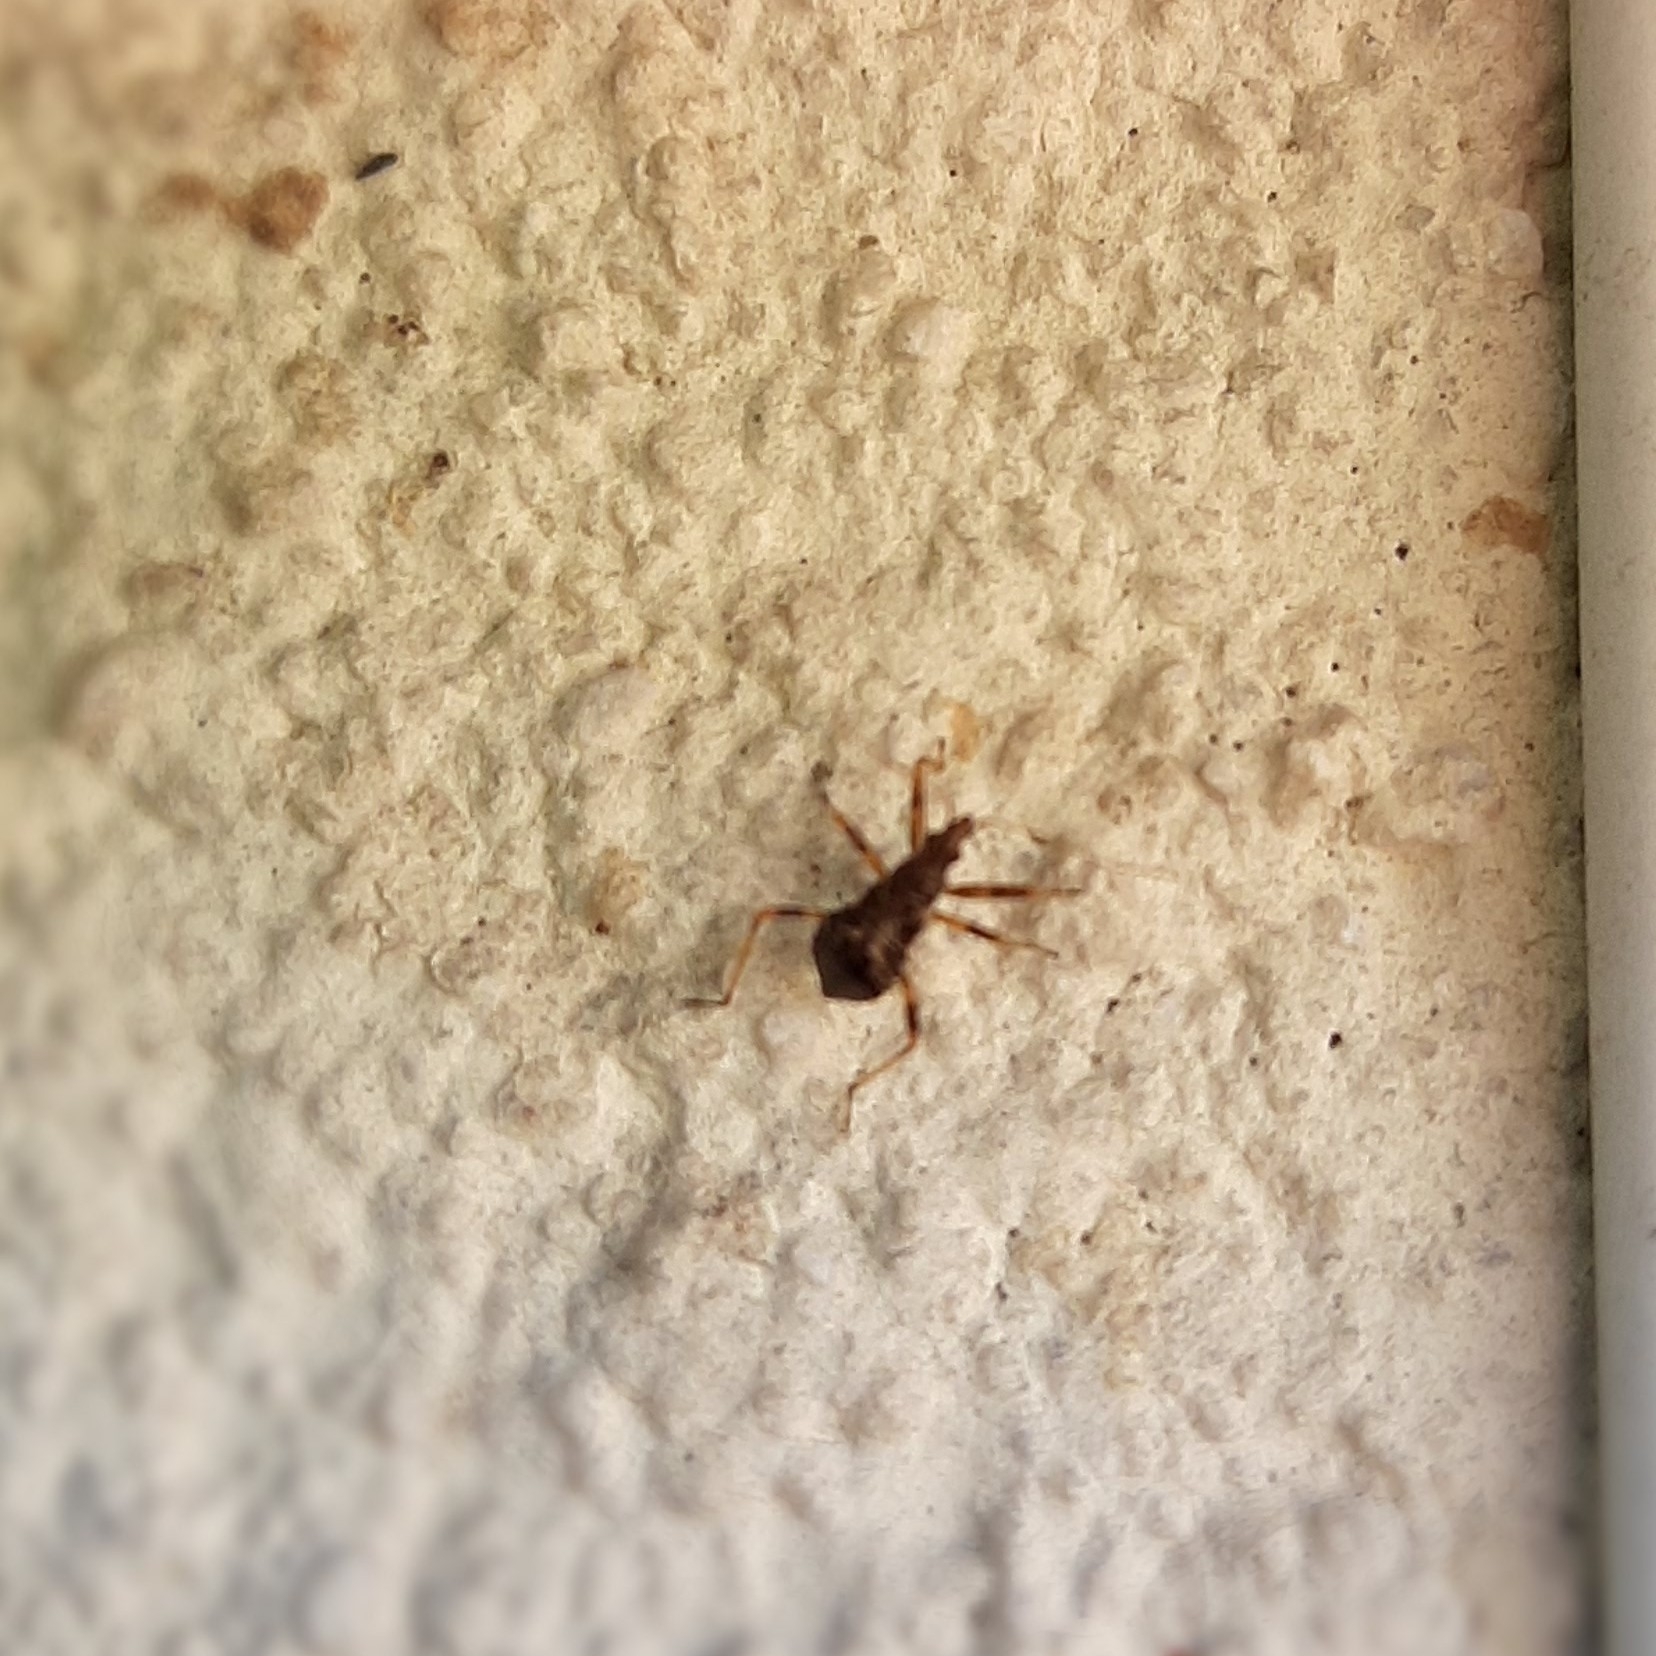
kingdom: Animalia
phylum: Arthropoda
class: Insecta
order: Hemiptera
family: Nabidae
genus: Himacerus
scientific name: Himacerus apterus
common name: Tree damsel bug
